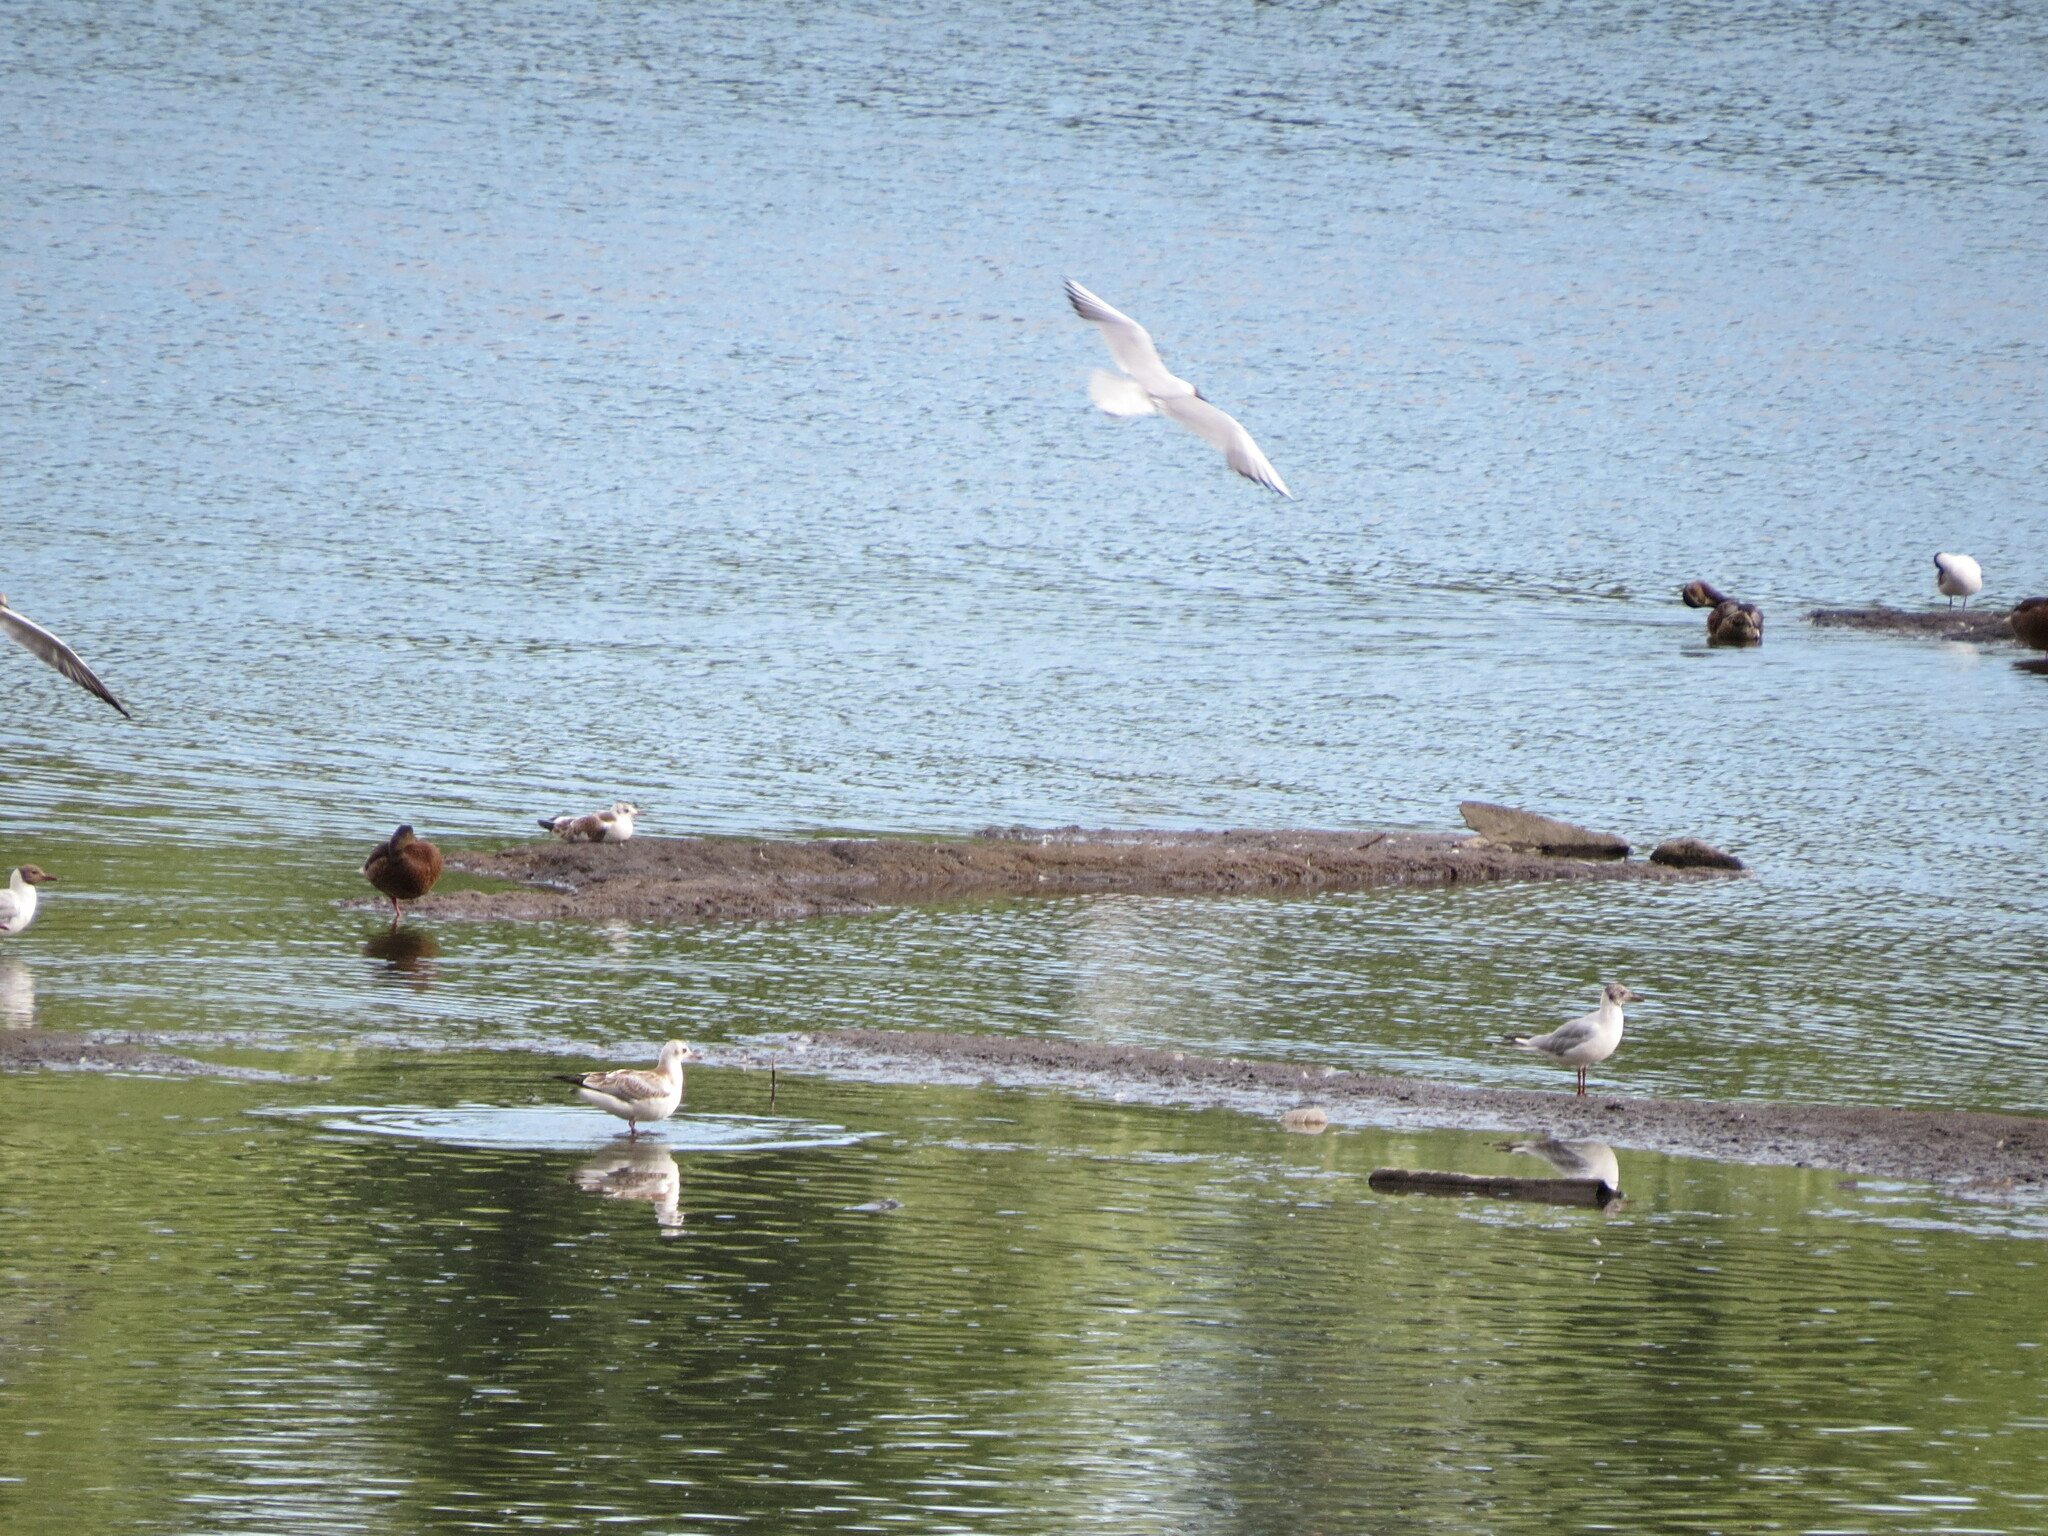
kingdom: Animalia
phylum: Chordata
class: Aves
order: Charadriiformes
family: Laridae
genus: Chroicocephalus
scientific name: Chroicocephalus ridibundus
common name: Black-headed gull
